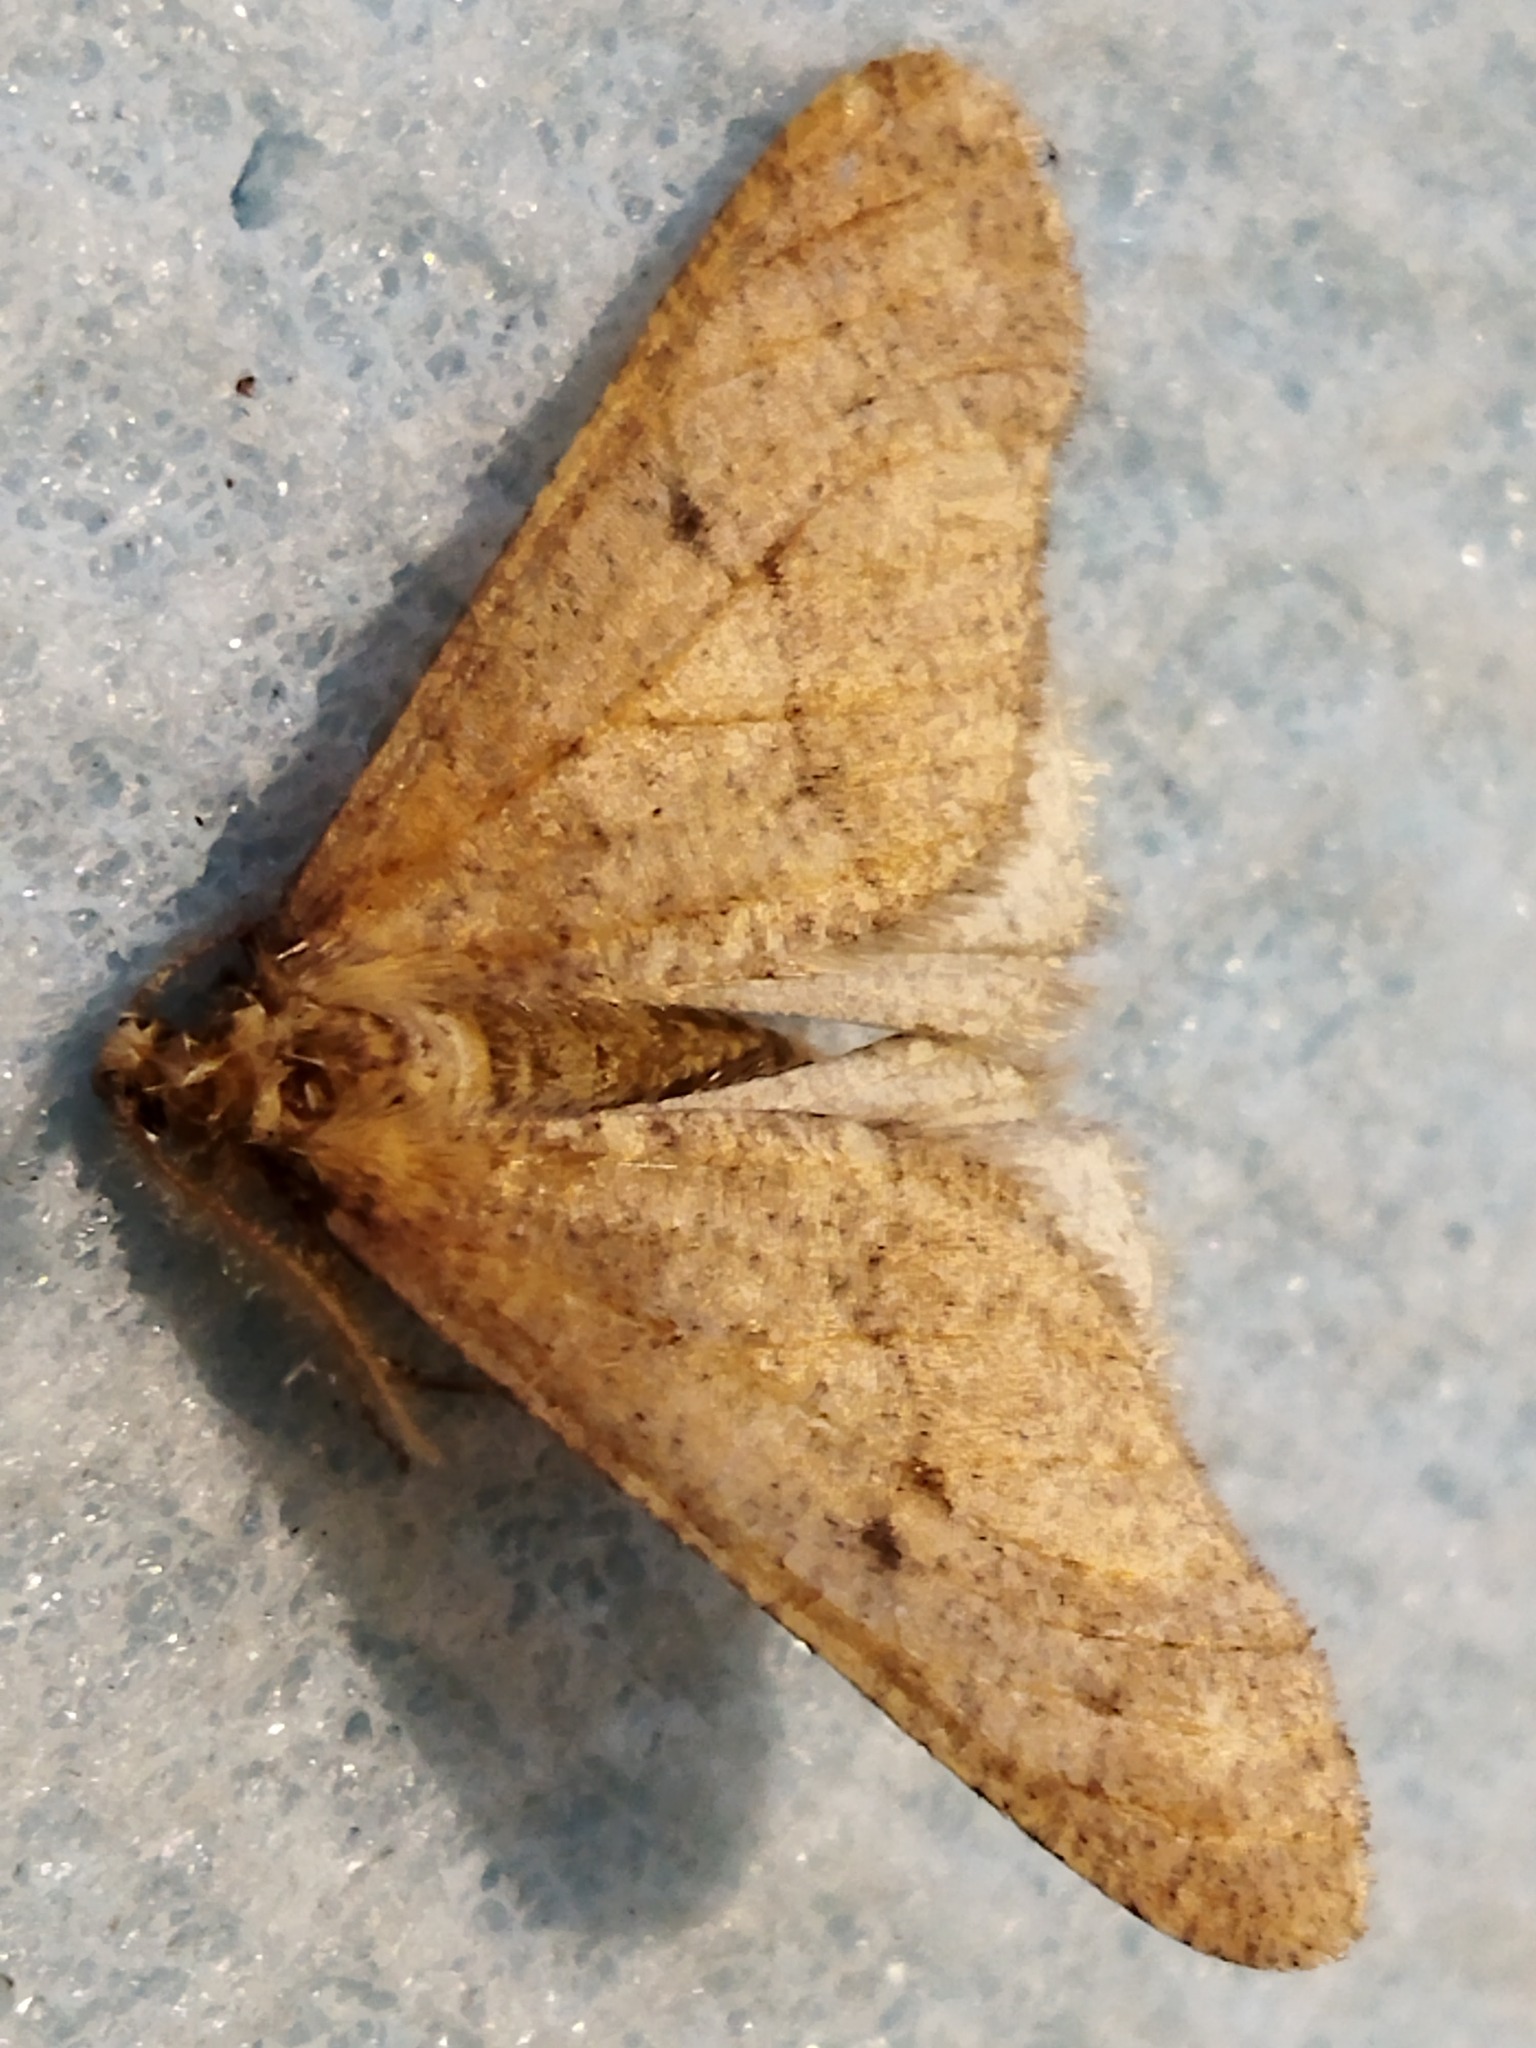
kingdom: Animalia
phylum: Arthropoda
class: Insecta
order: Lepidoptera
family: Geometridae
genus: Erannis
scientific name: Erannis defoliaria
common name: Mottled umber
